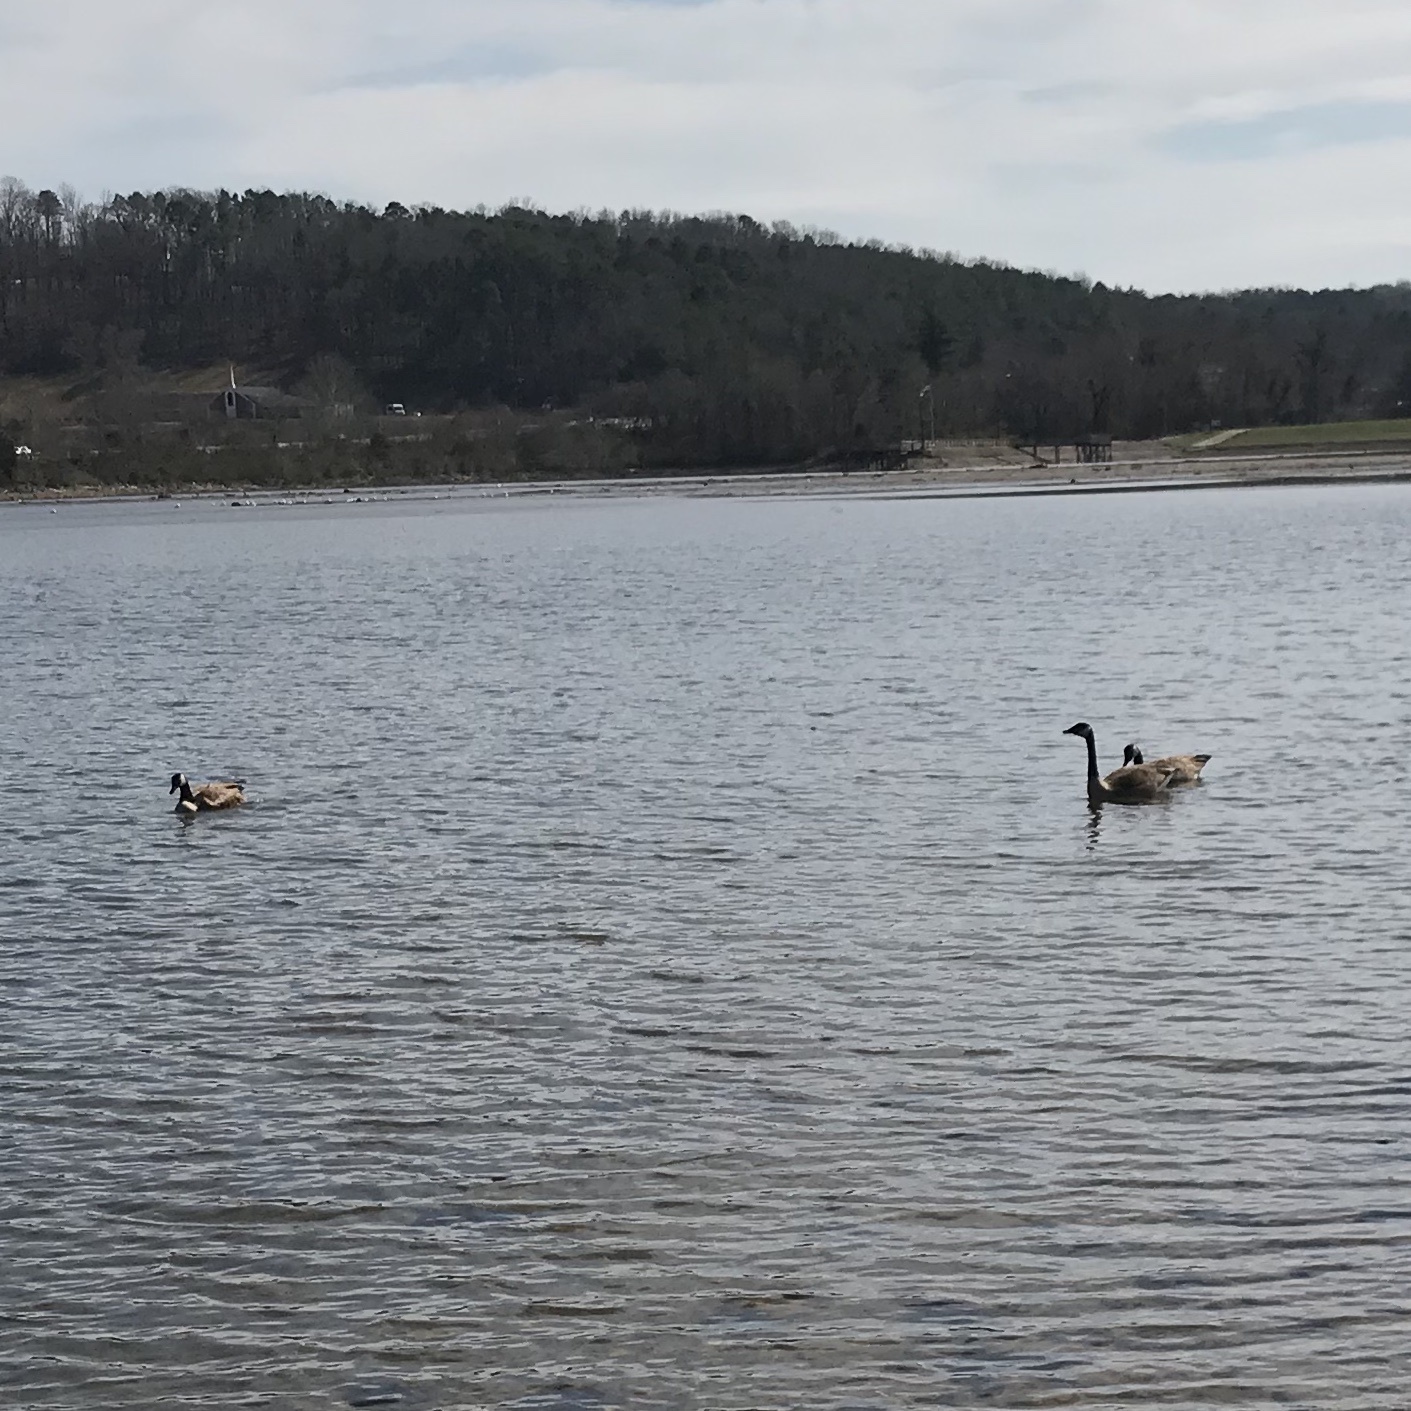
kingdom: Animalia
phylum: Chordata
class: Aves
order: Anseriformes
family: Anatidae
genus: Branta
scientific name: Branta canadensis
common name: Canada goose
